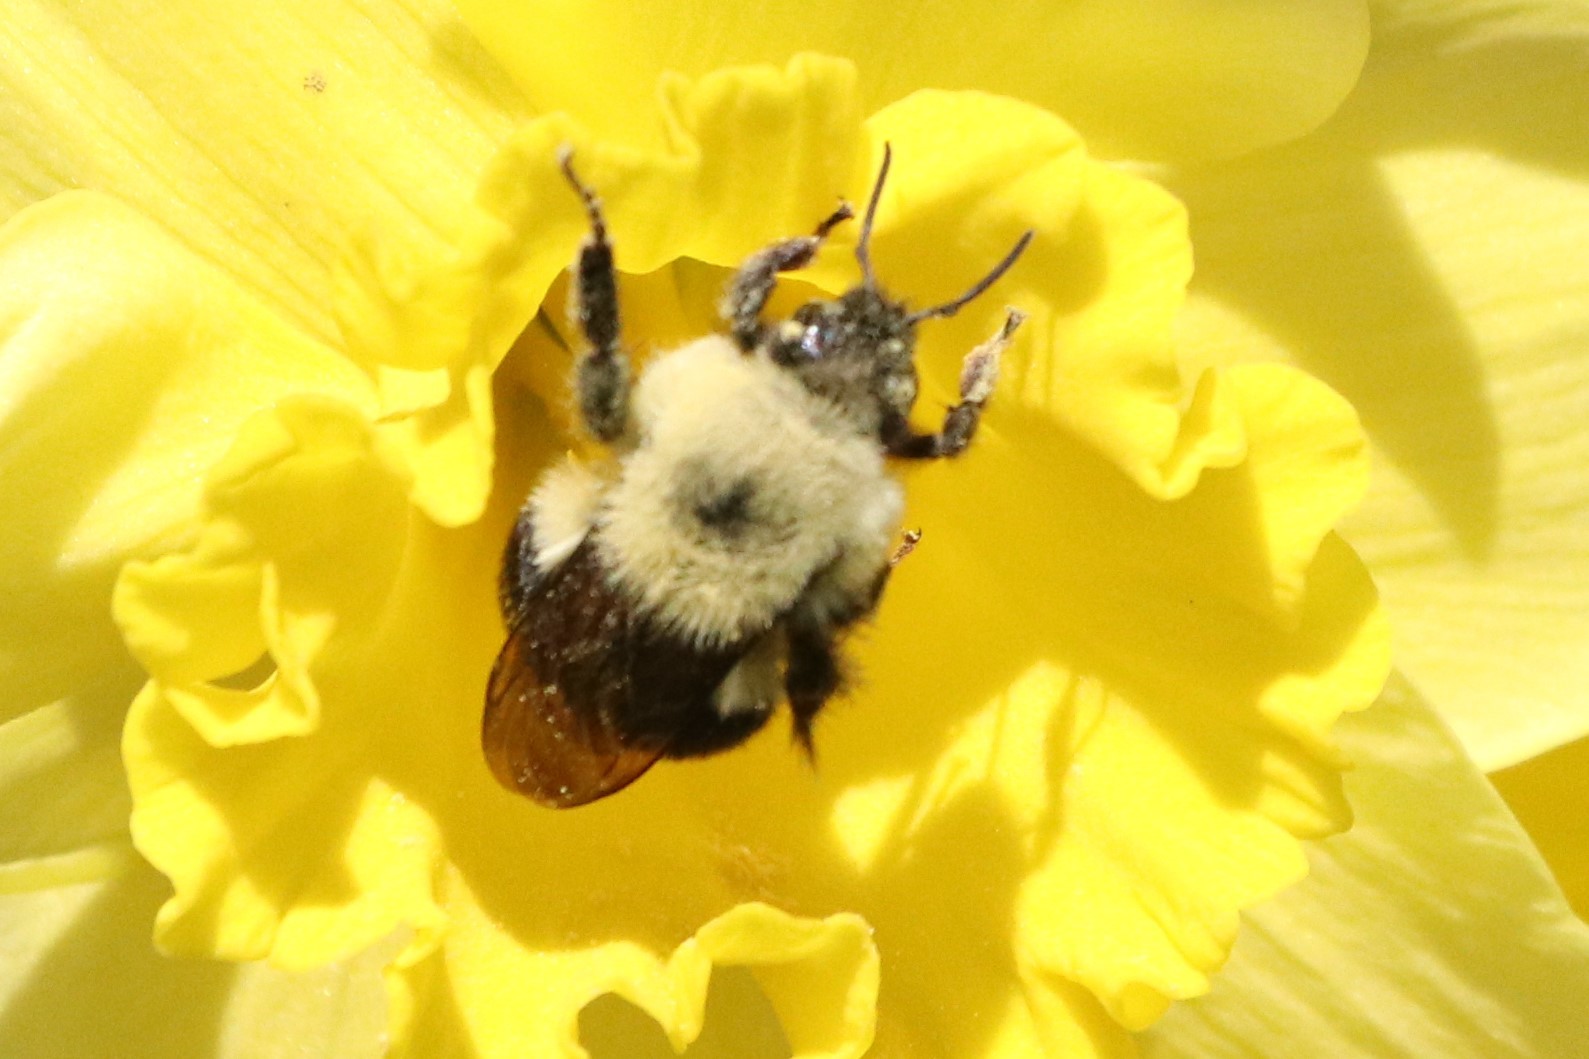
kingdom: Animalia
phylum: Arthropoda
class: Insecta
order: Hymenoptera
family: Apidae
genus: Bombus
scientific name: Bombus bimaculatus
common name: Two-spotted bumble bee
